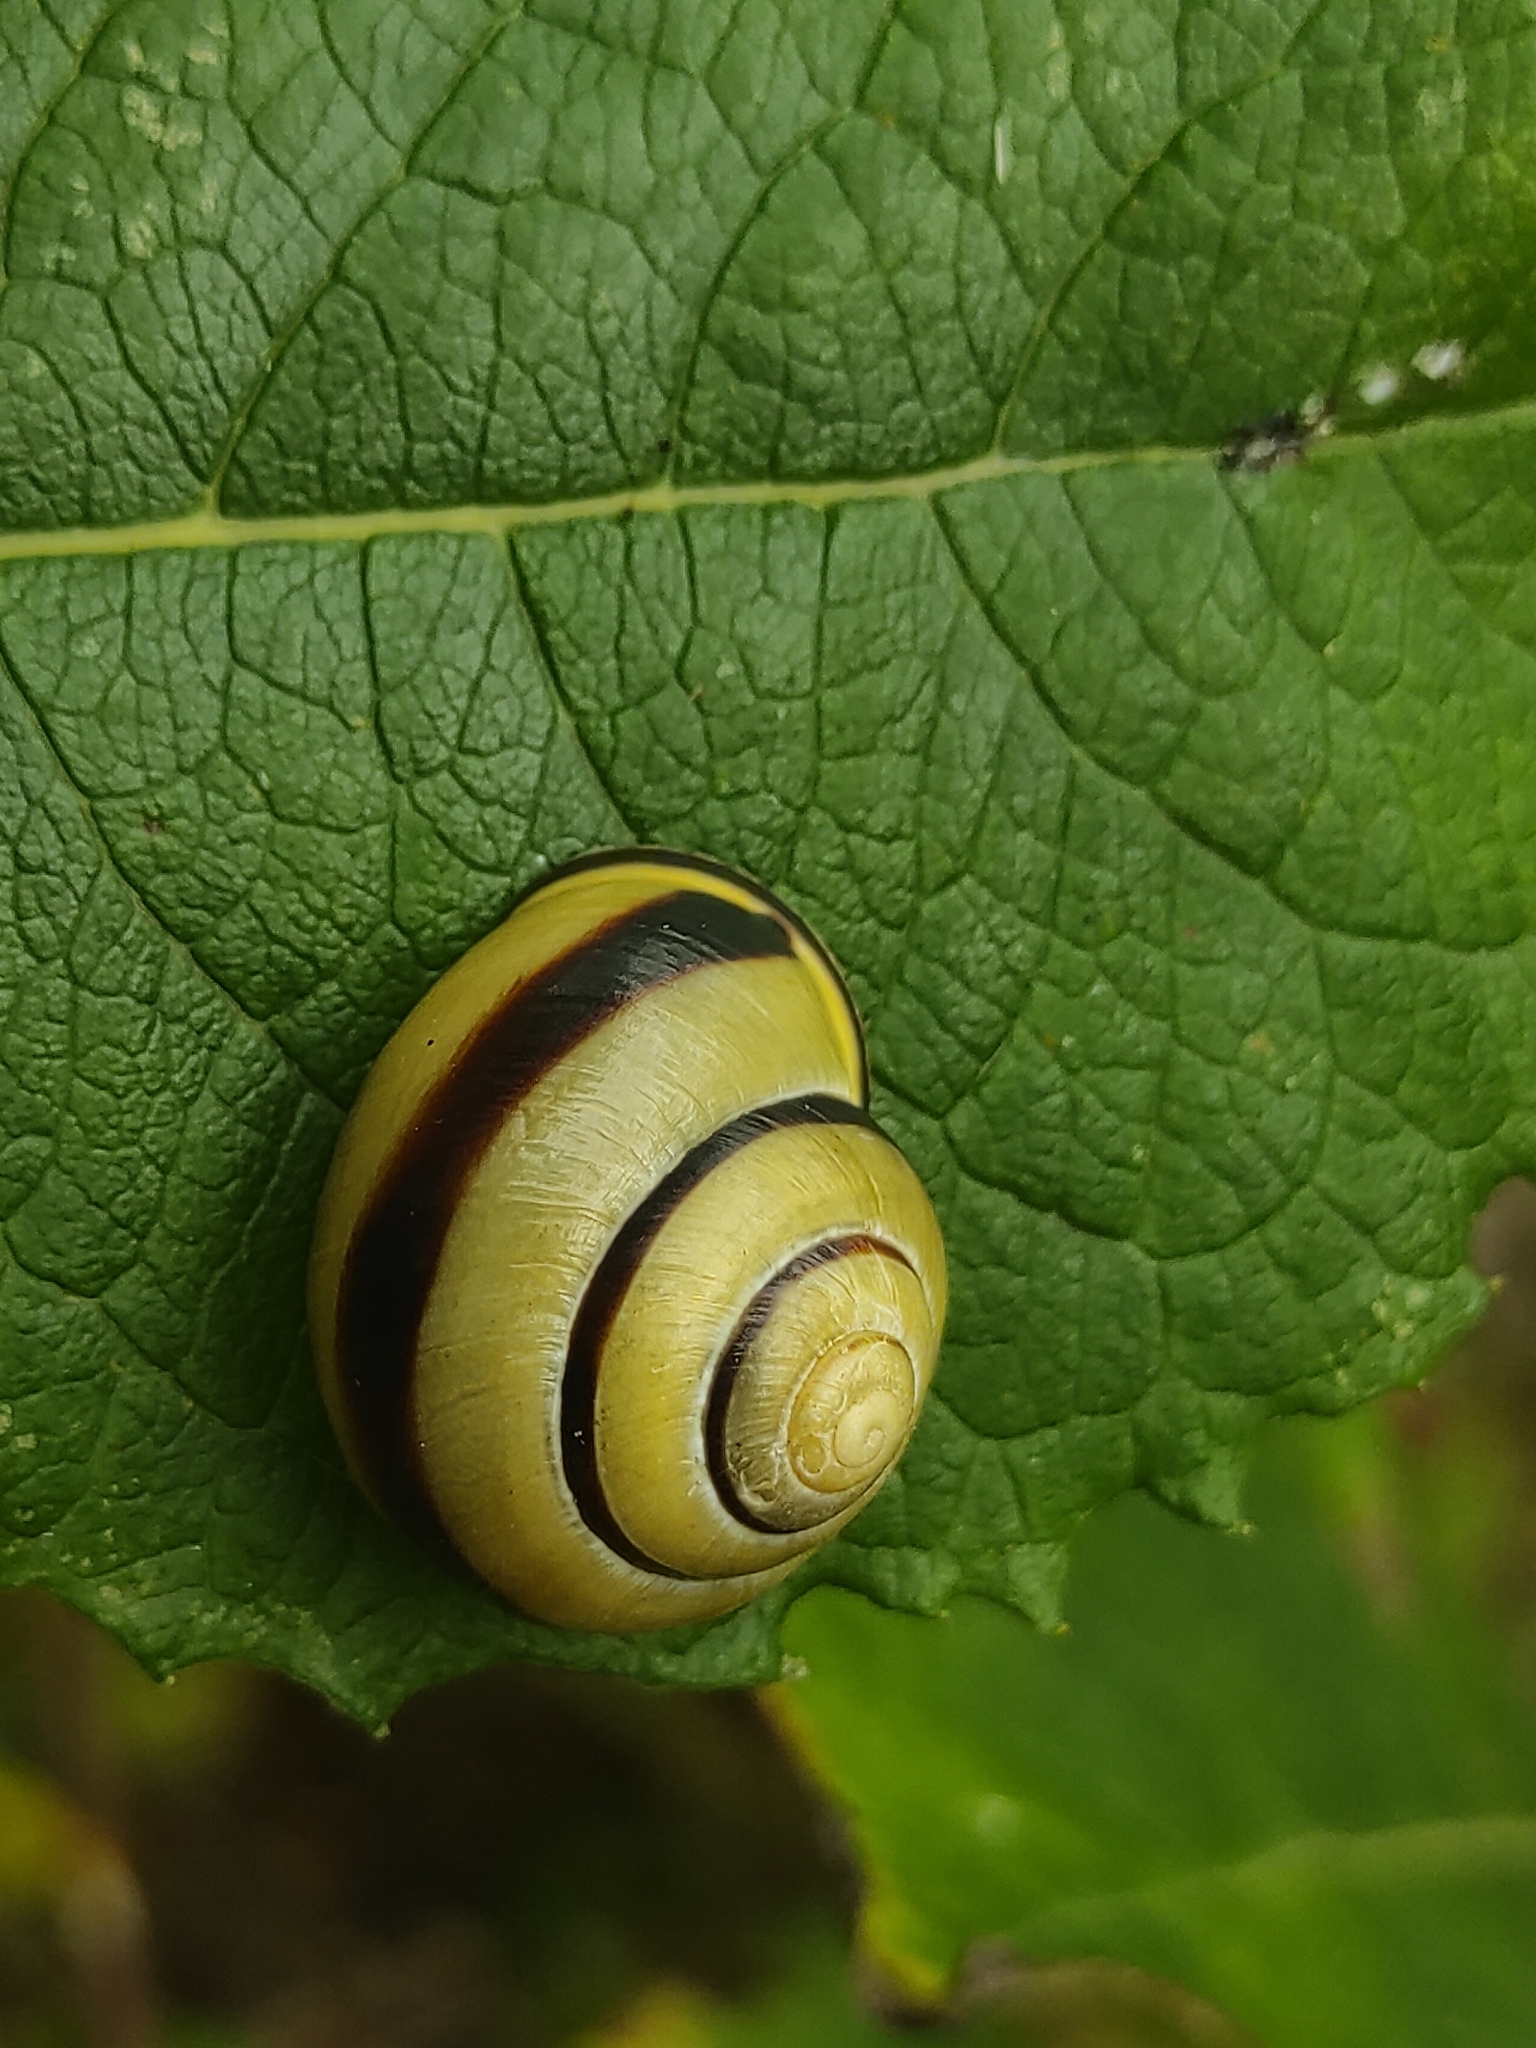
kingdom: Animalia
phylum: Mollusca
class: Gastropoda
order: Stylommatophora
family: Helicidae
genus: Cepaea
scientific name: Cepaea nemoralis
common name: Grovesnail
